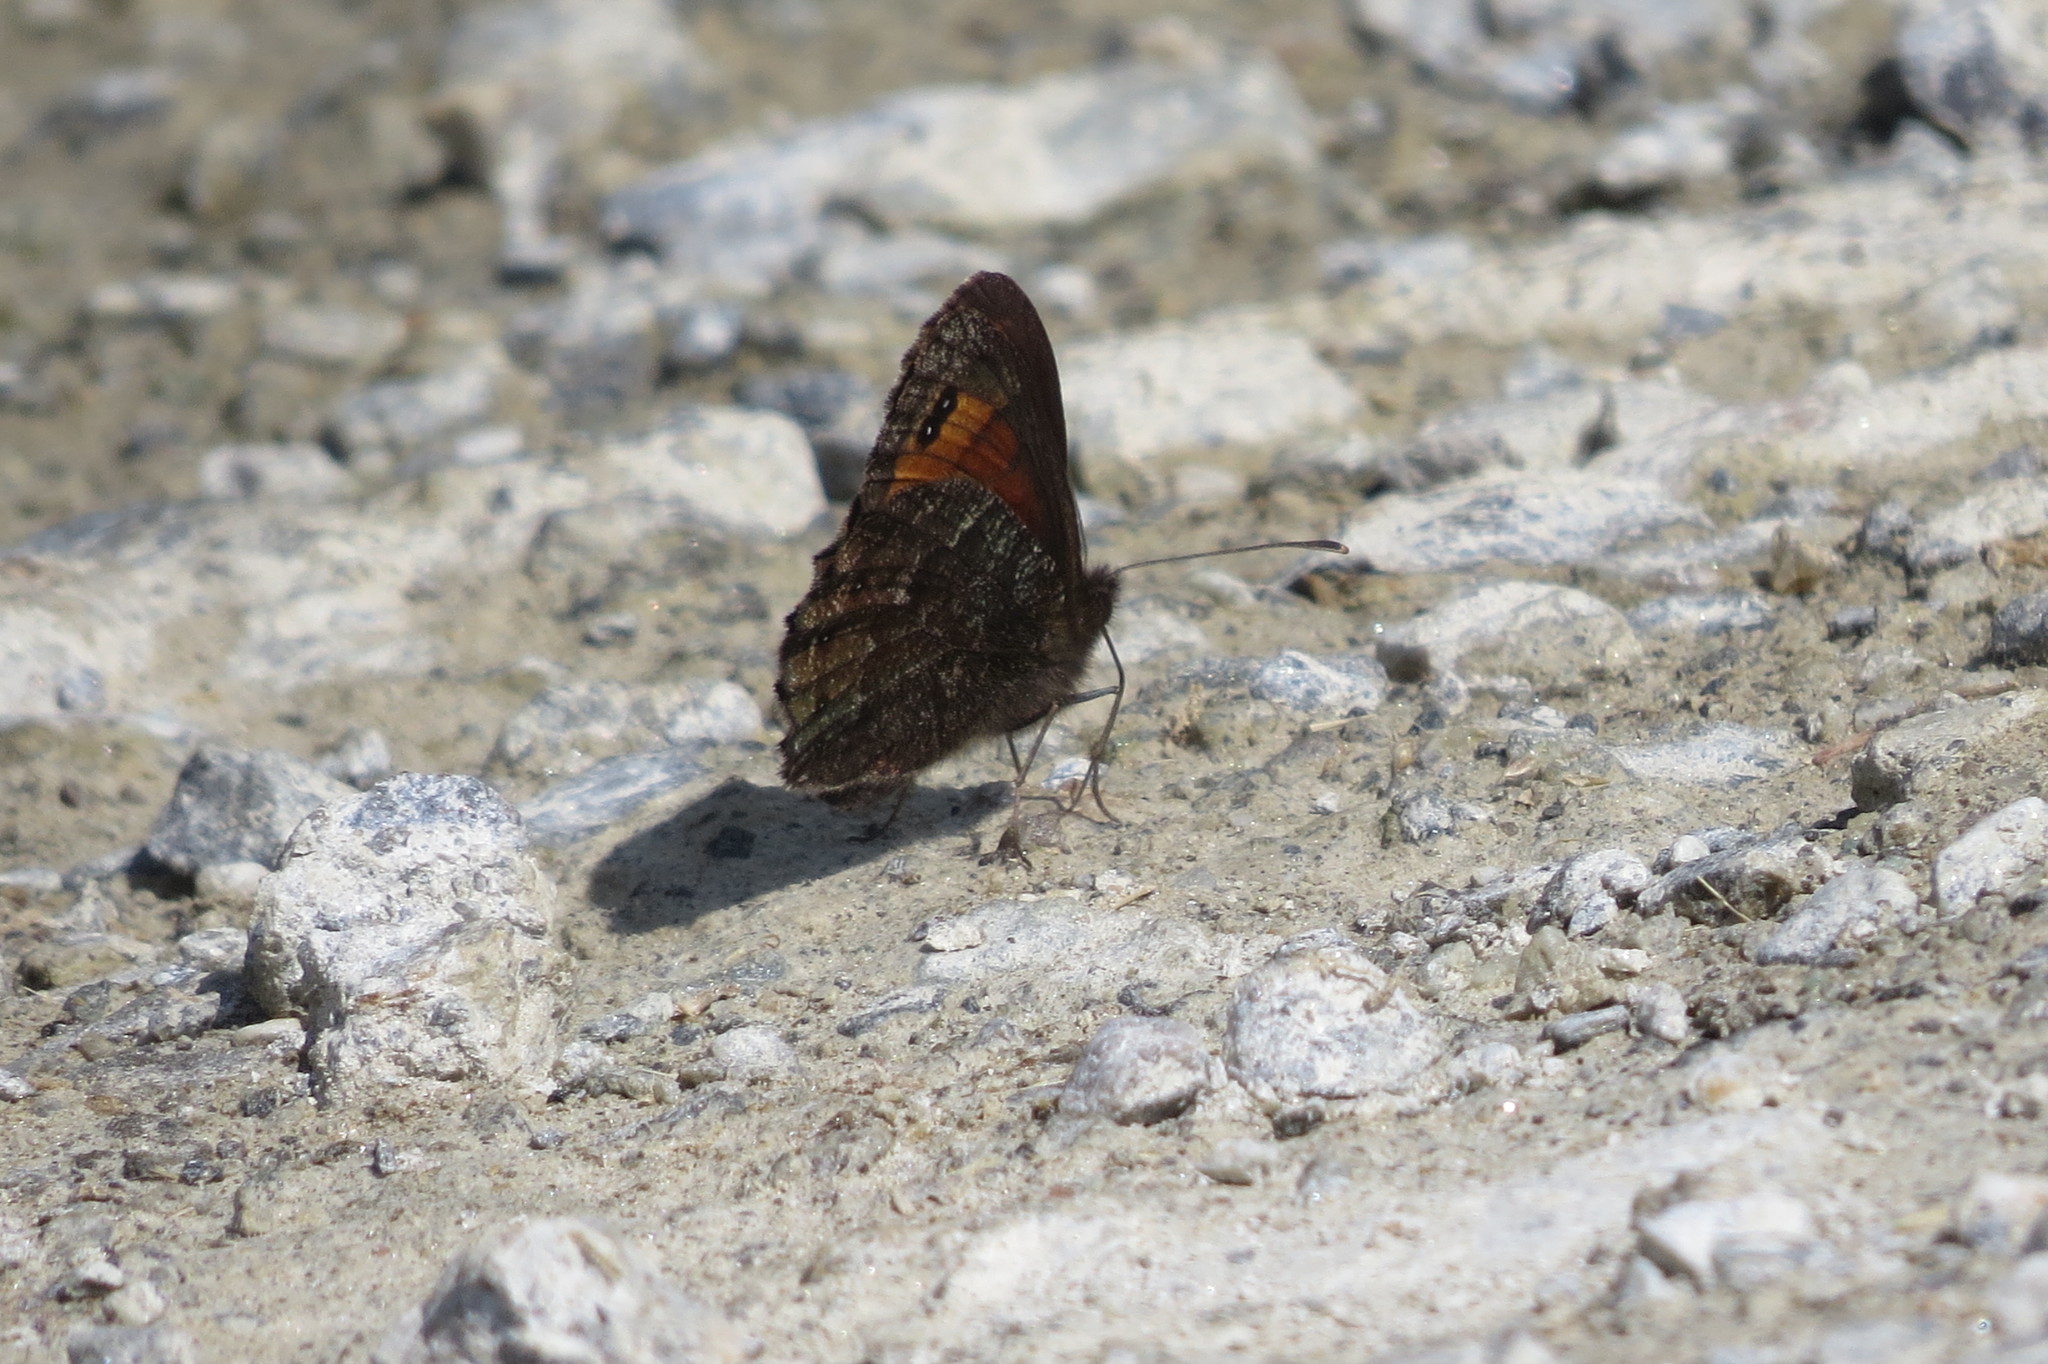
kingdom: Animalia
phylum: Arthropoda
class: Insecta
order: Lepidoptera
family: Nymphalidae
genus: Erebia
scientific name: Erebia montanus
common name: Marbled ringlet
